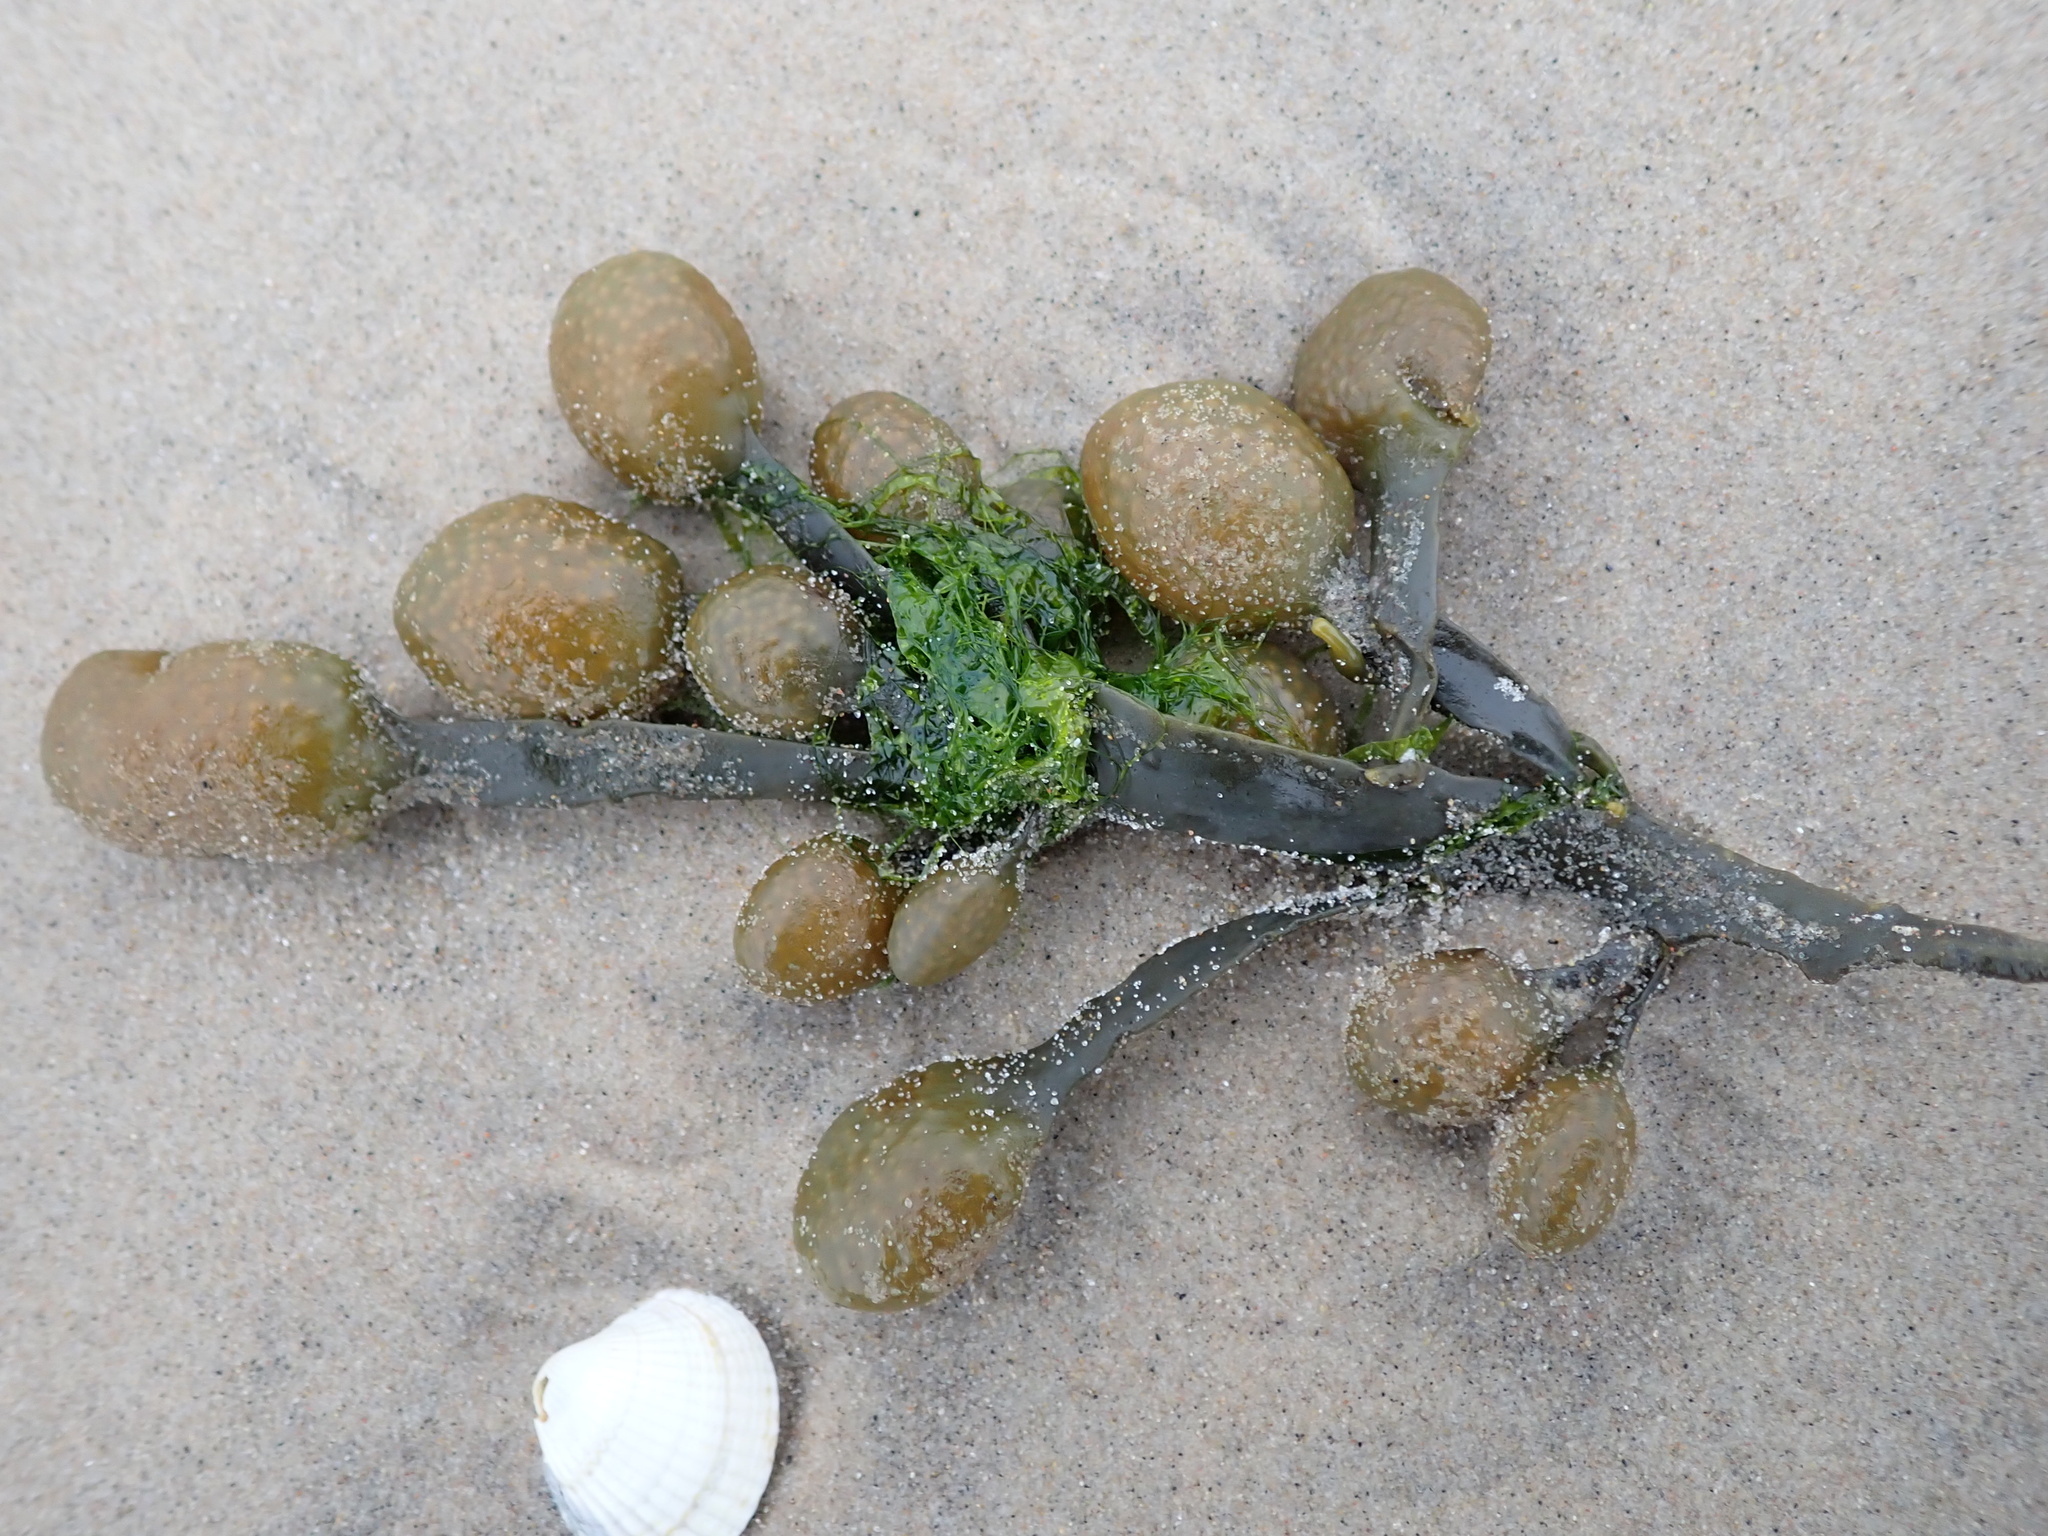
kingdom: Chromista
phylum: Ochrophyta
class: Phaeophyceae
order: Fucales
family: Fucaceae
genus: Ascophyllum
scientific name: Ascophyllum nodosum
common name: Knotted wrack
